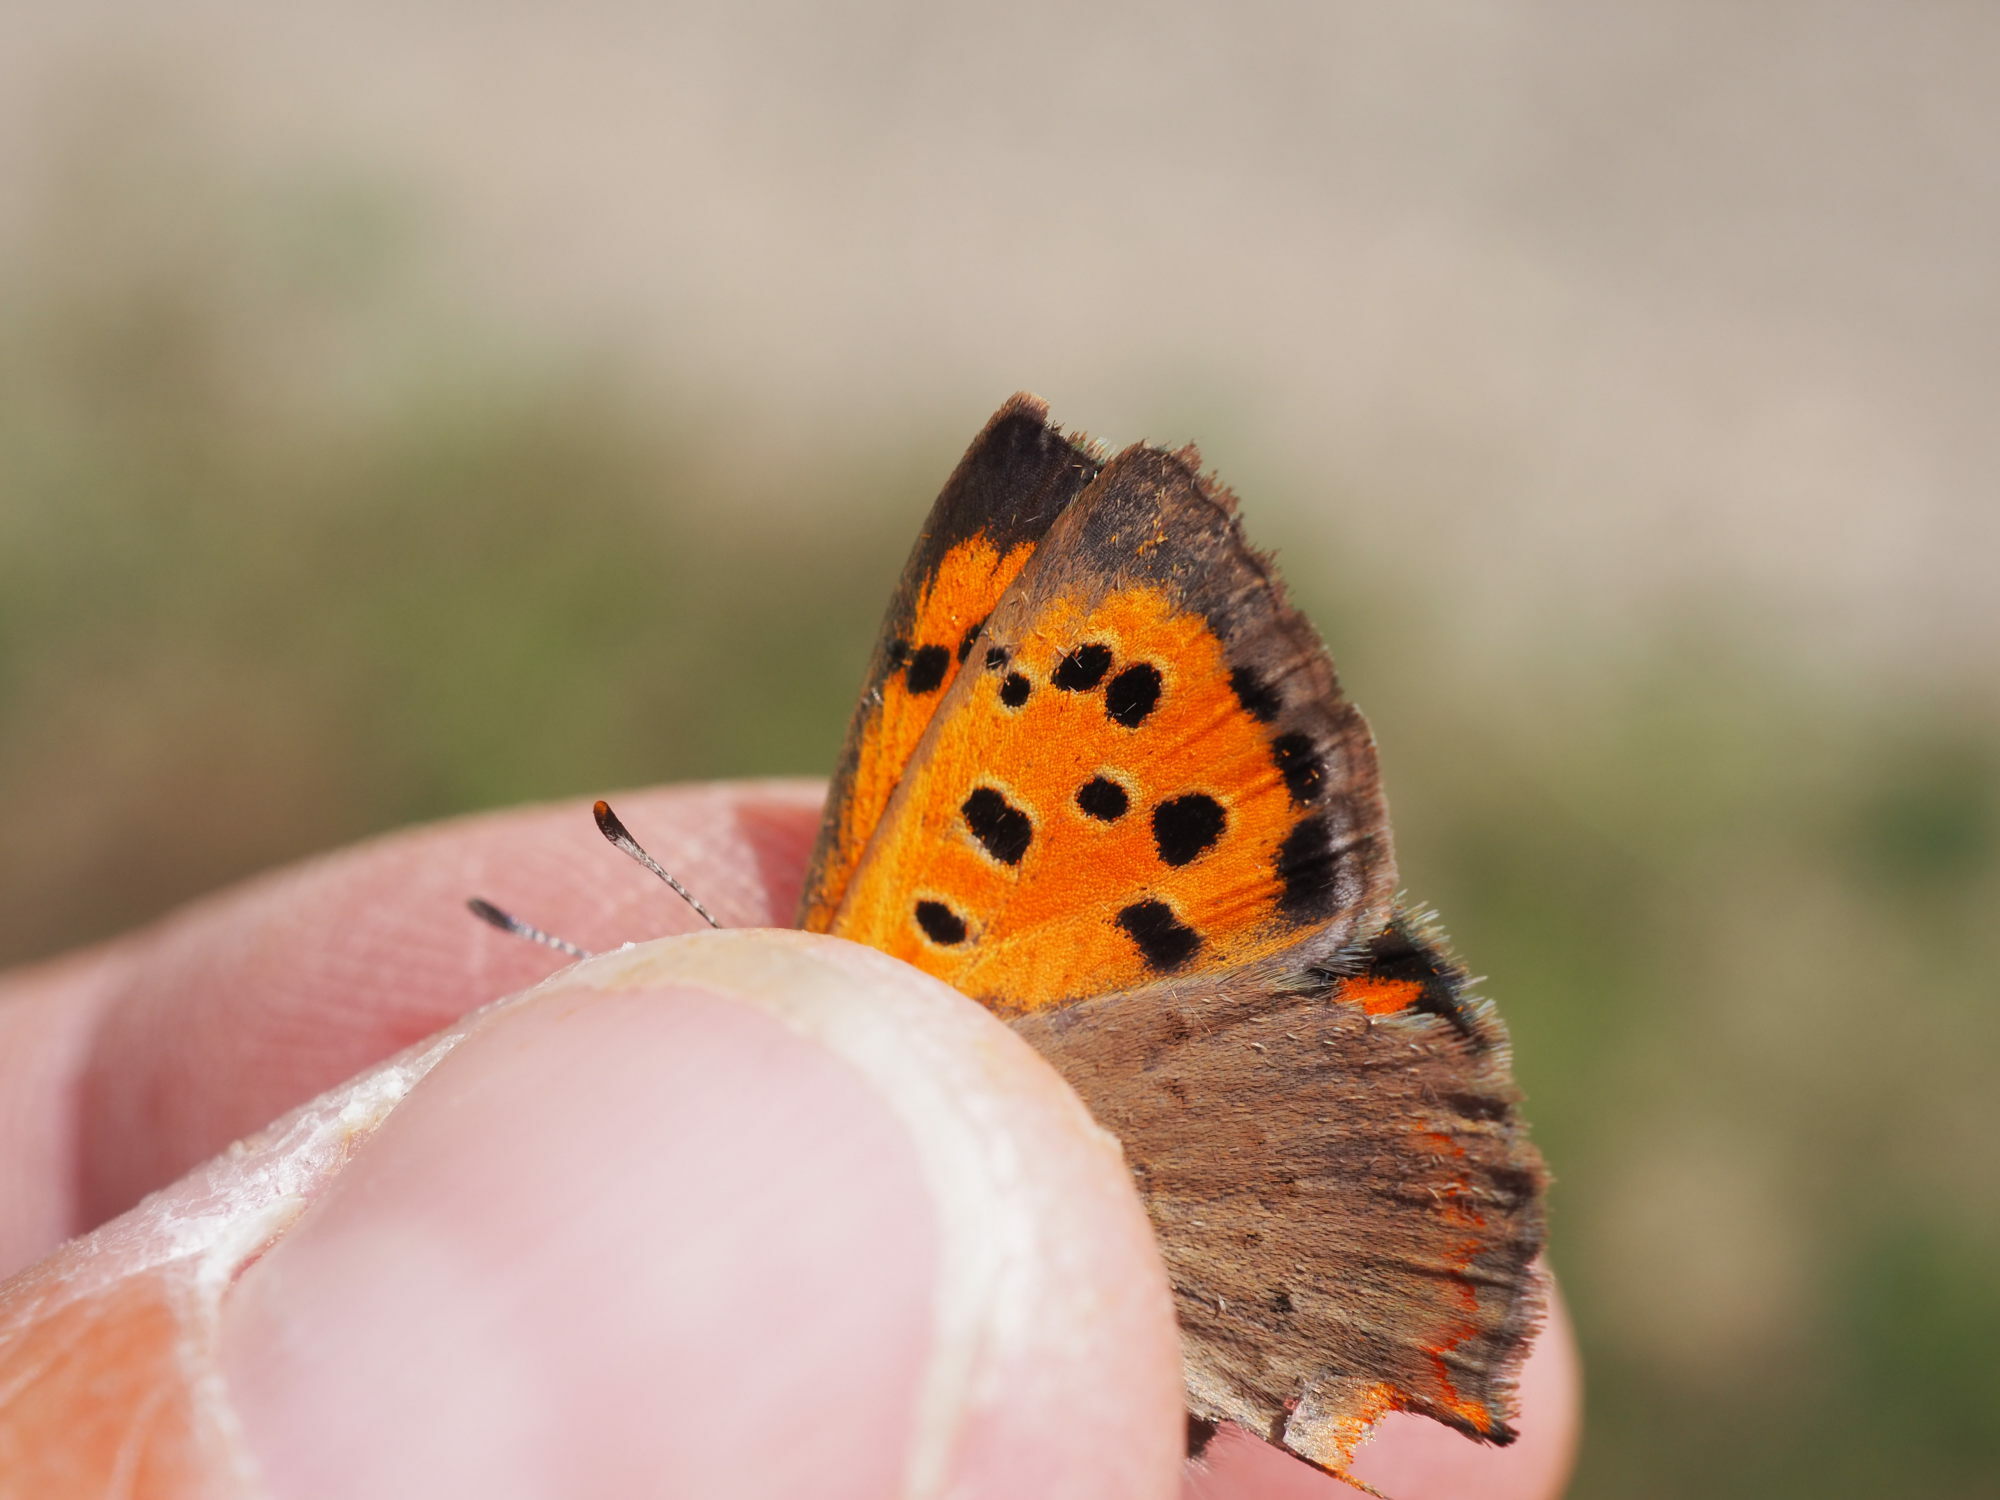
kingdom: Animalia
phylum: Arthropoda
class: Insecta
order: Lepidoptera
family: Lycaenidae
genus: Lycaena
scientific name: Lycaena phlaeas
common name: Small copper
